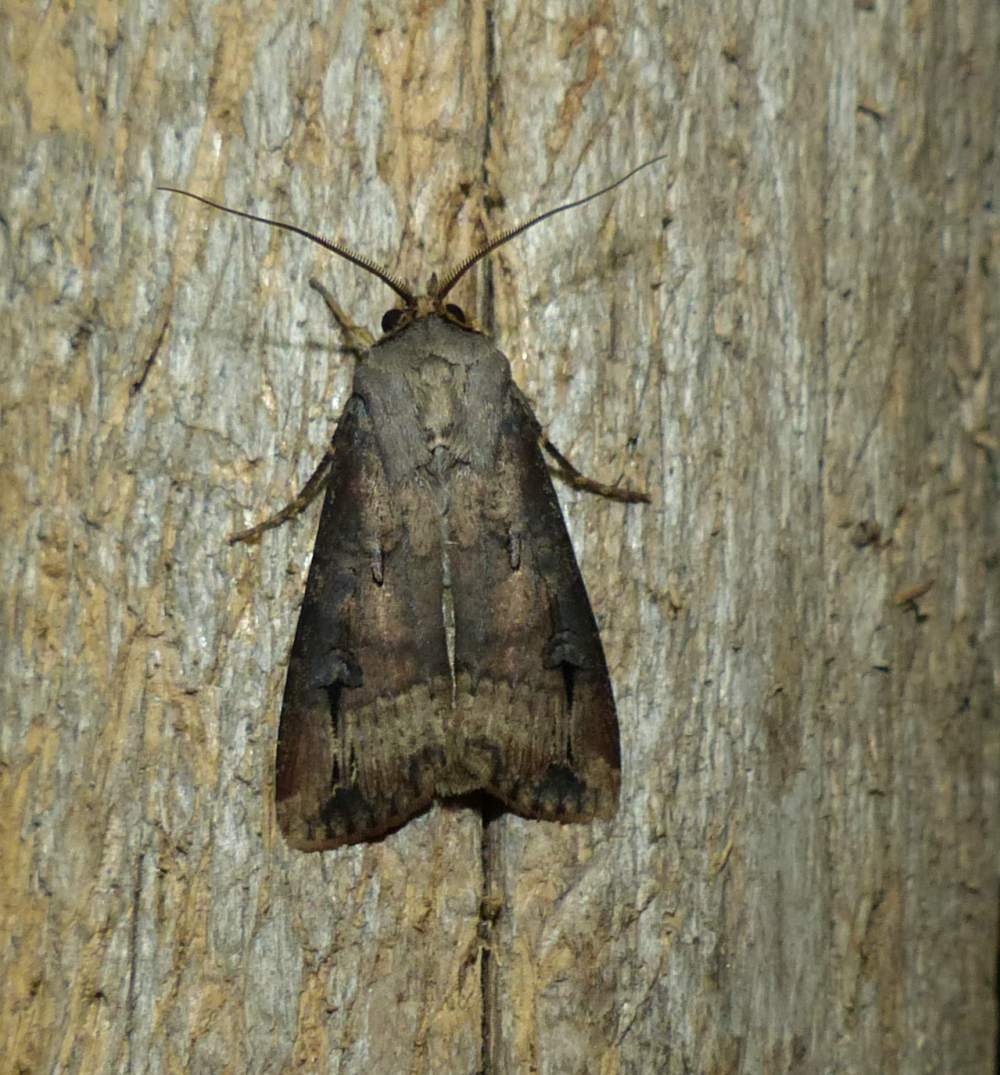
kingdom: Animalia
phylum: Arthropoda
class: Insecta
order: Lepidoptera
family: Noctuidae
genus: Agrotis
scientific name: Agrotis ipsilon
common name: Dark sword-grass
